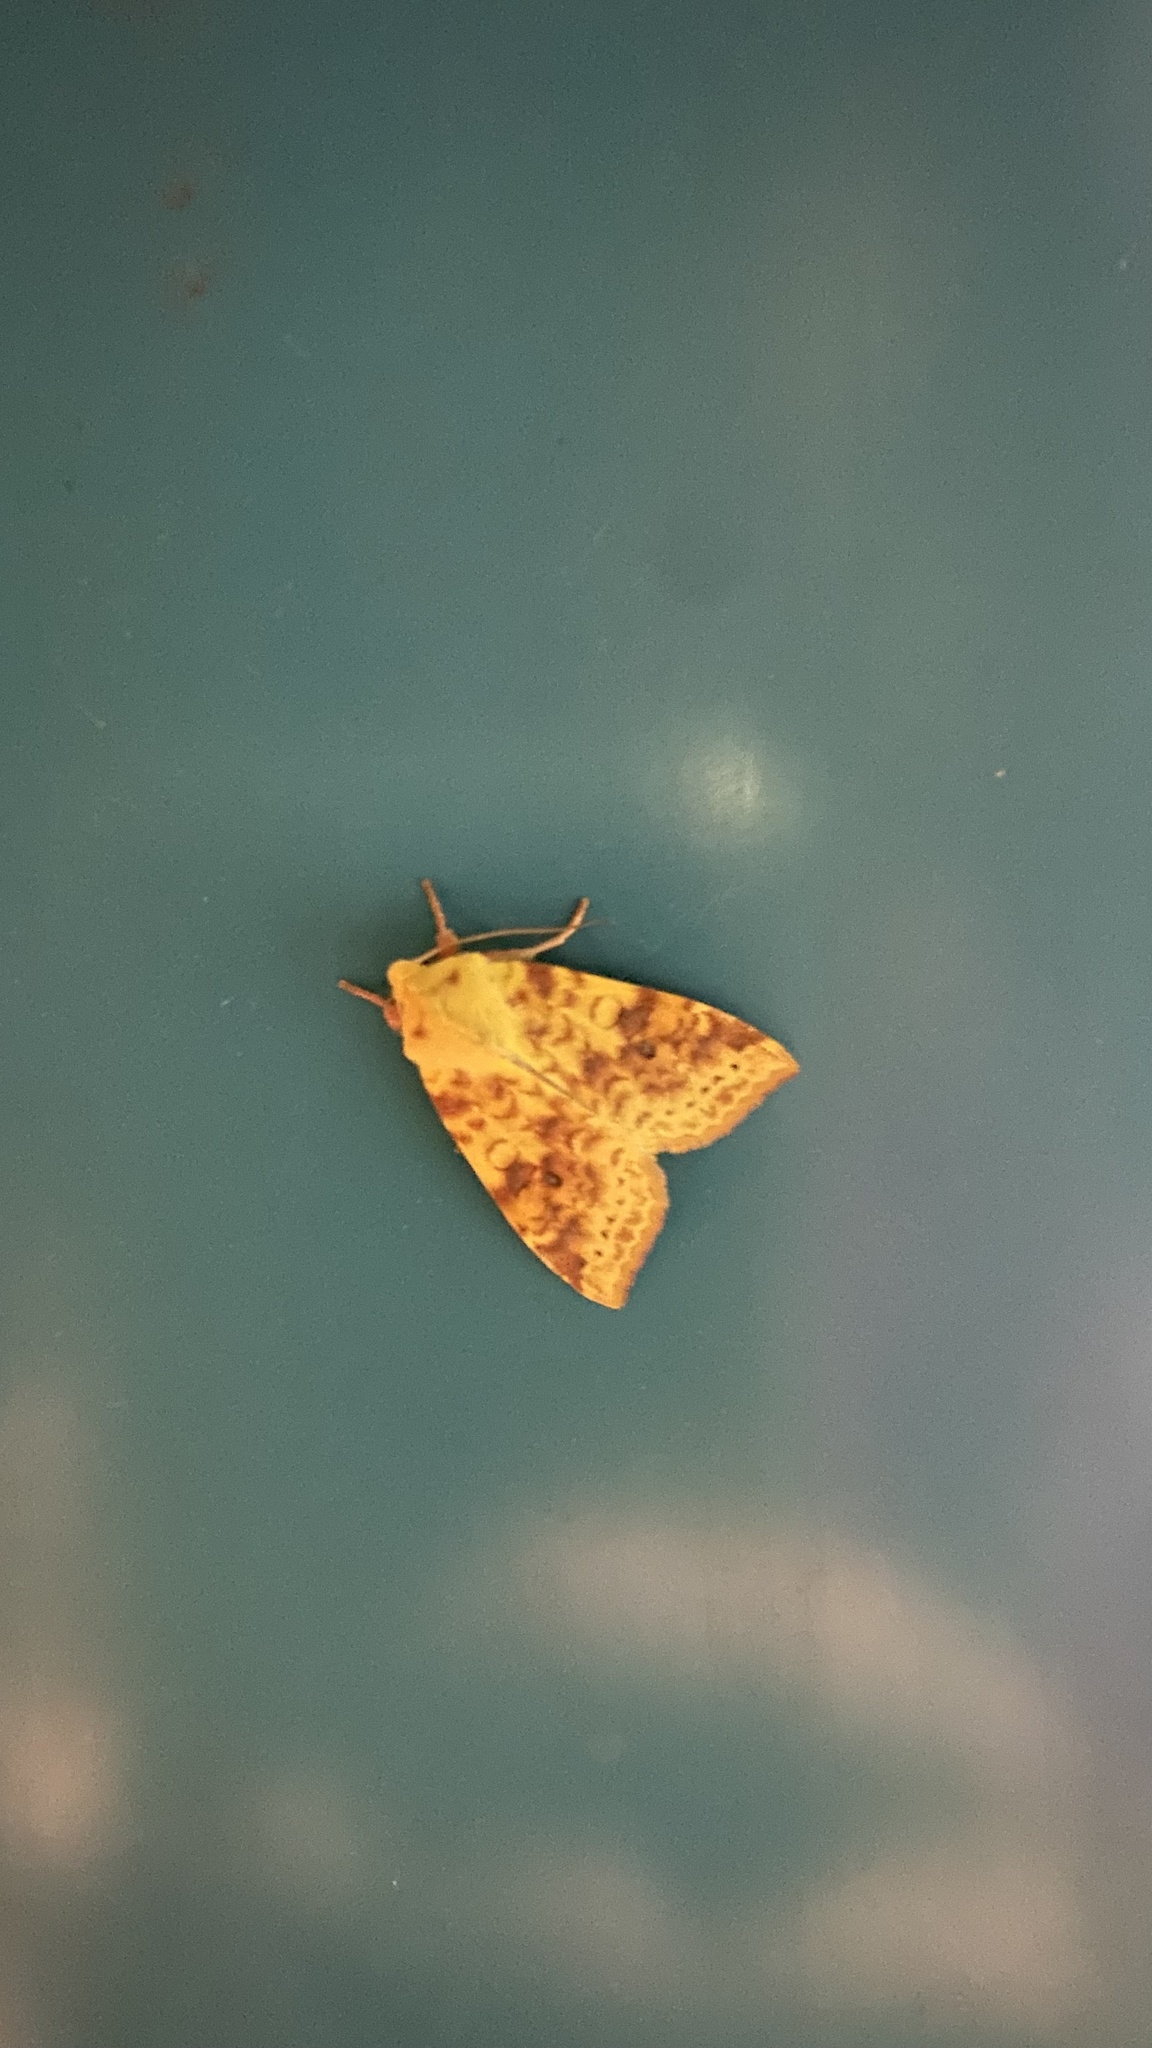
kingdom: Animalia
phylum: Arthropoda
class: Insecta
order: Lepidoptera
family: Noctuidae
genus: Xanthia
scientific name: Xanthia icteritia
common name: The sallow
